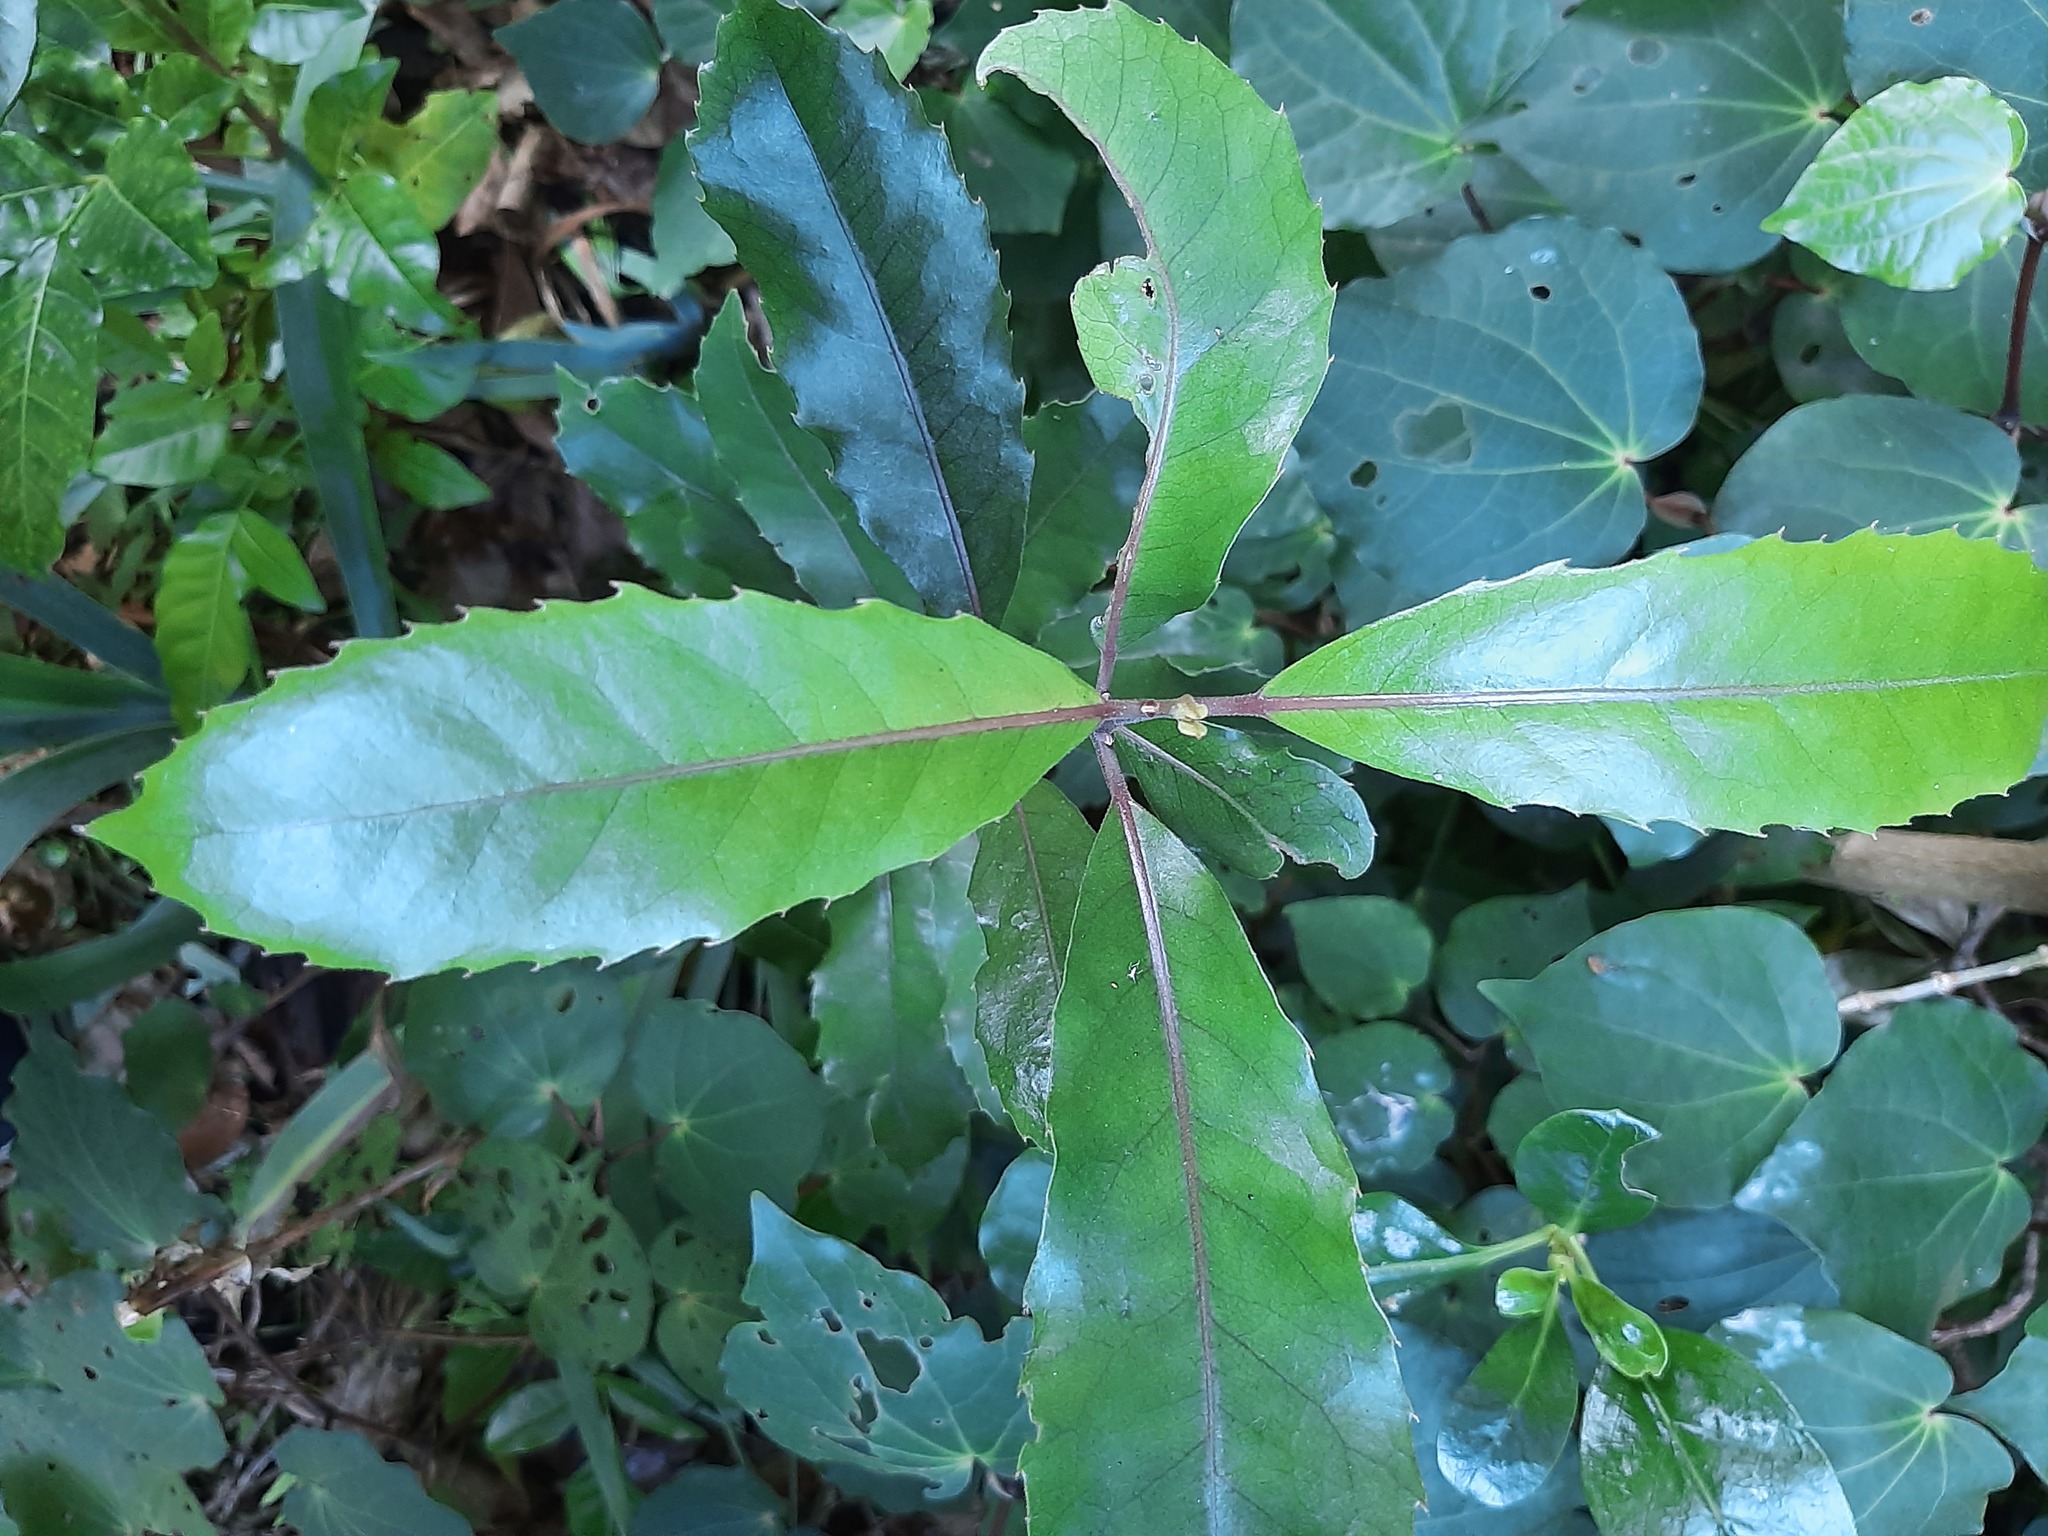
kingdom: Plantae
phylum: Tracheophyta
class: Magnoliopsida
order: Laurales
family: Monimiaceae
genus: Hedycarya
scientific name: Hedycarya arborea
